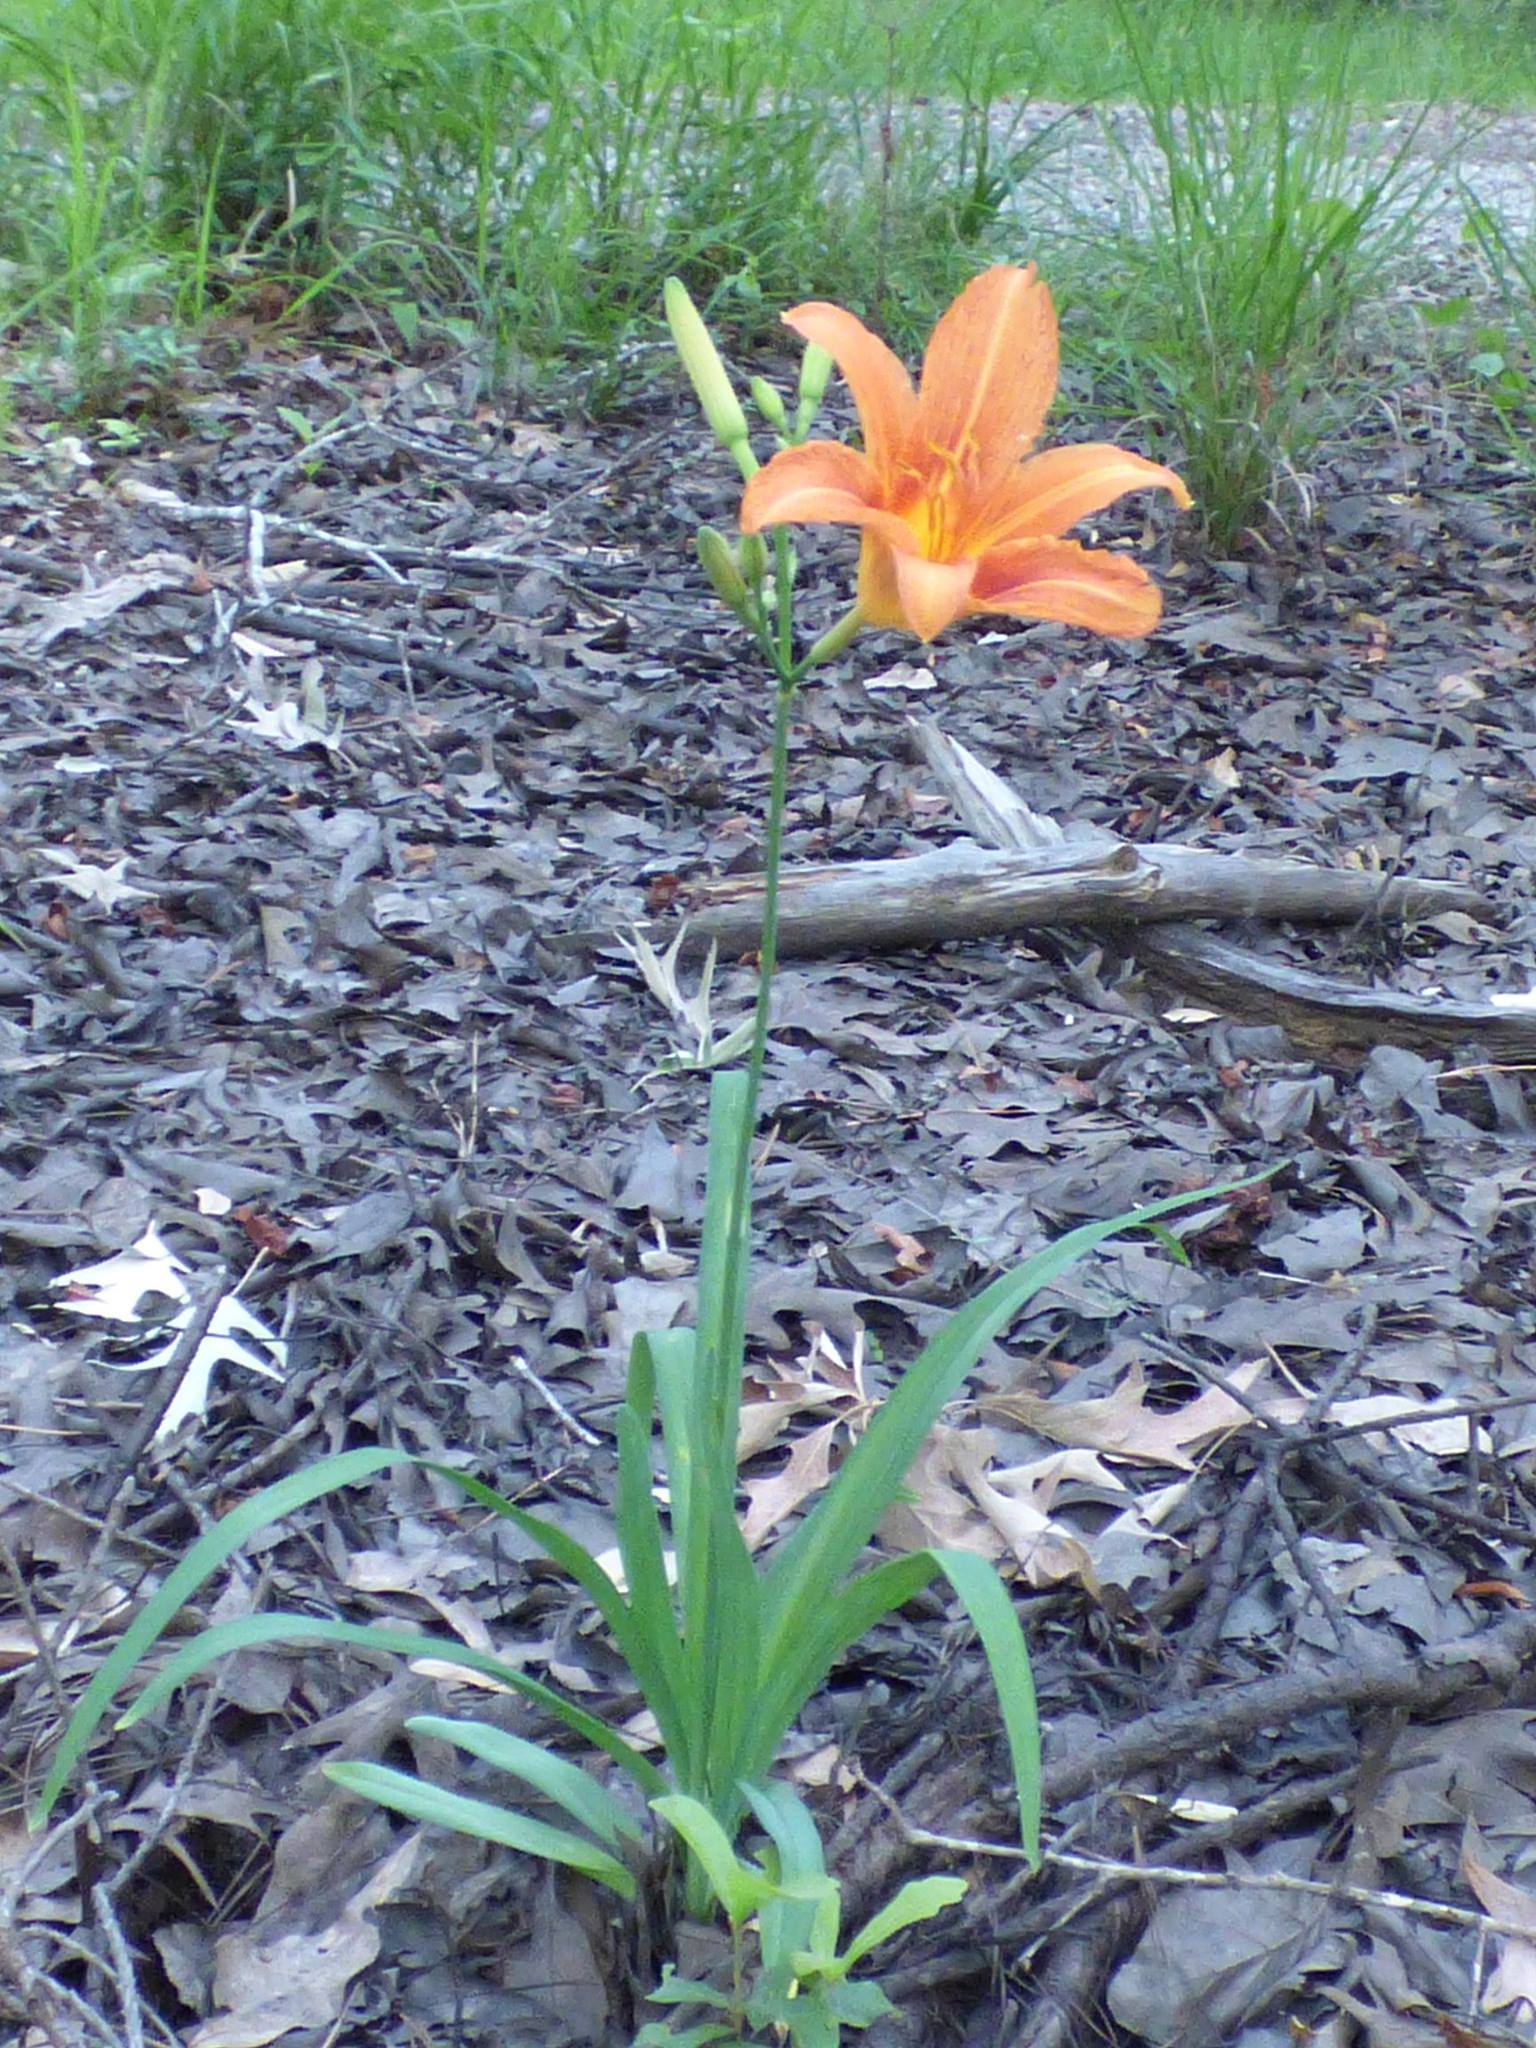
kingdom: Plantae
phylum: Tracheophyta
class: Liliopsida
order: Asparagales
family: Asphodelaceae
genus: Hemerocallis
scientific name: Hemerocallis fulva
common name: Orange day-lily
